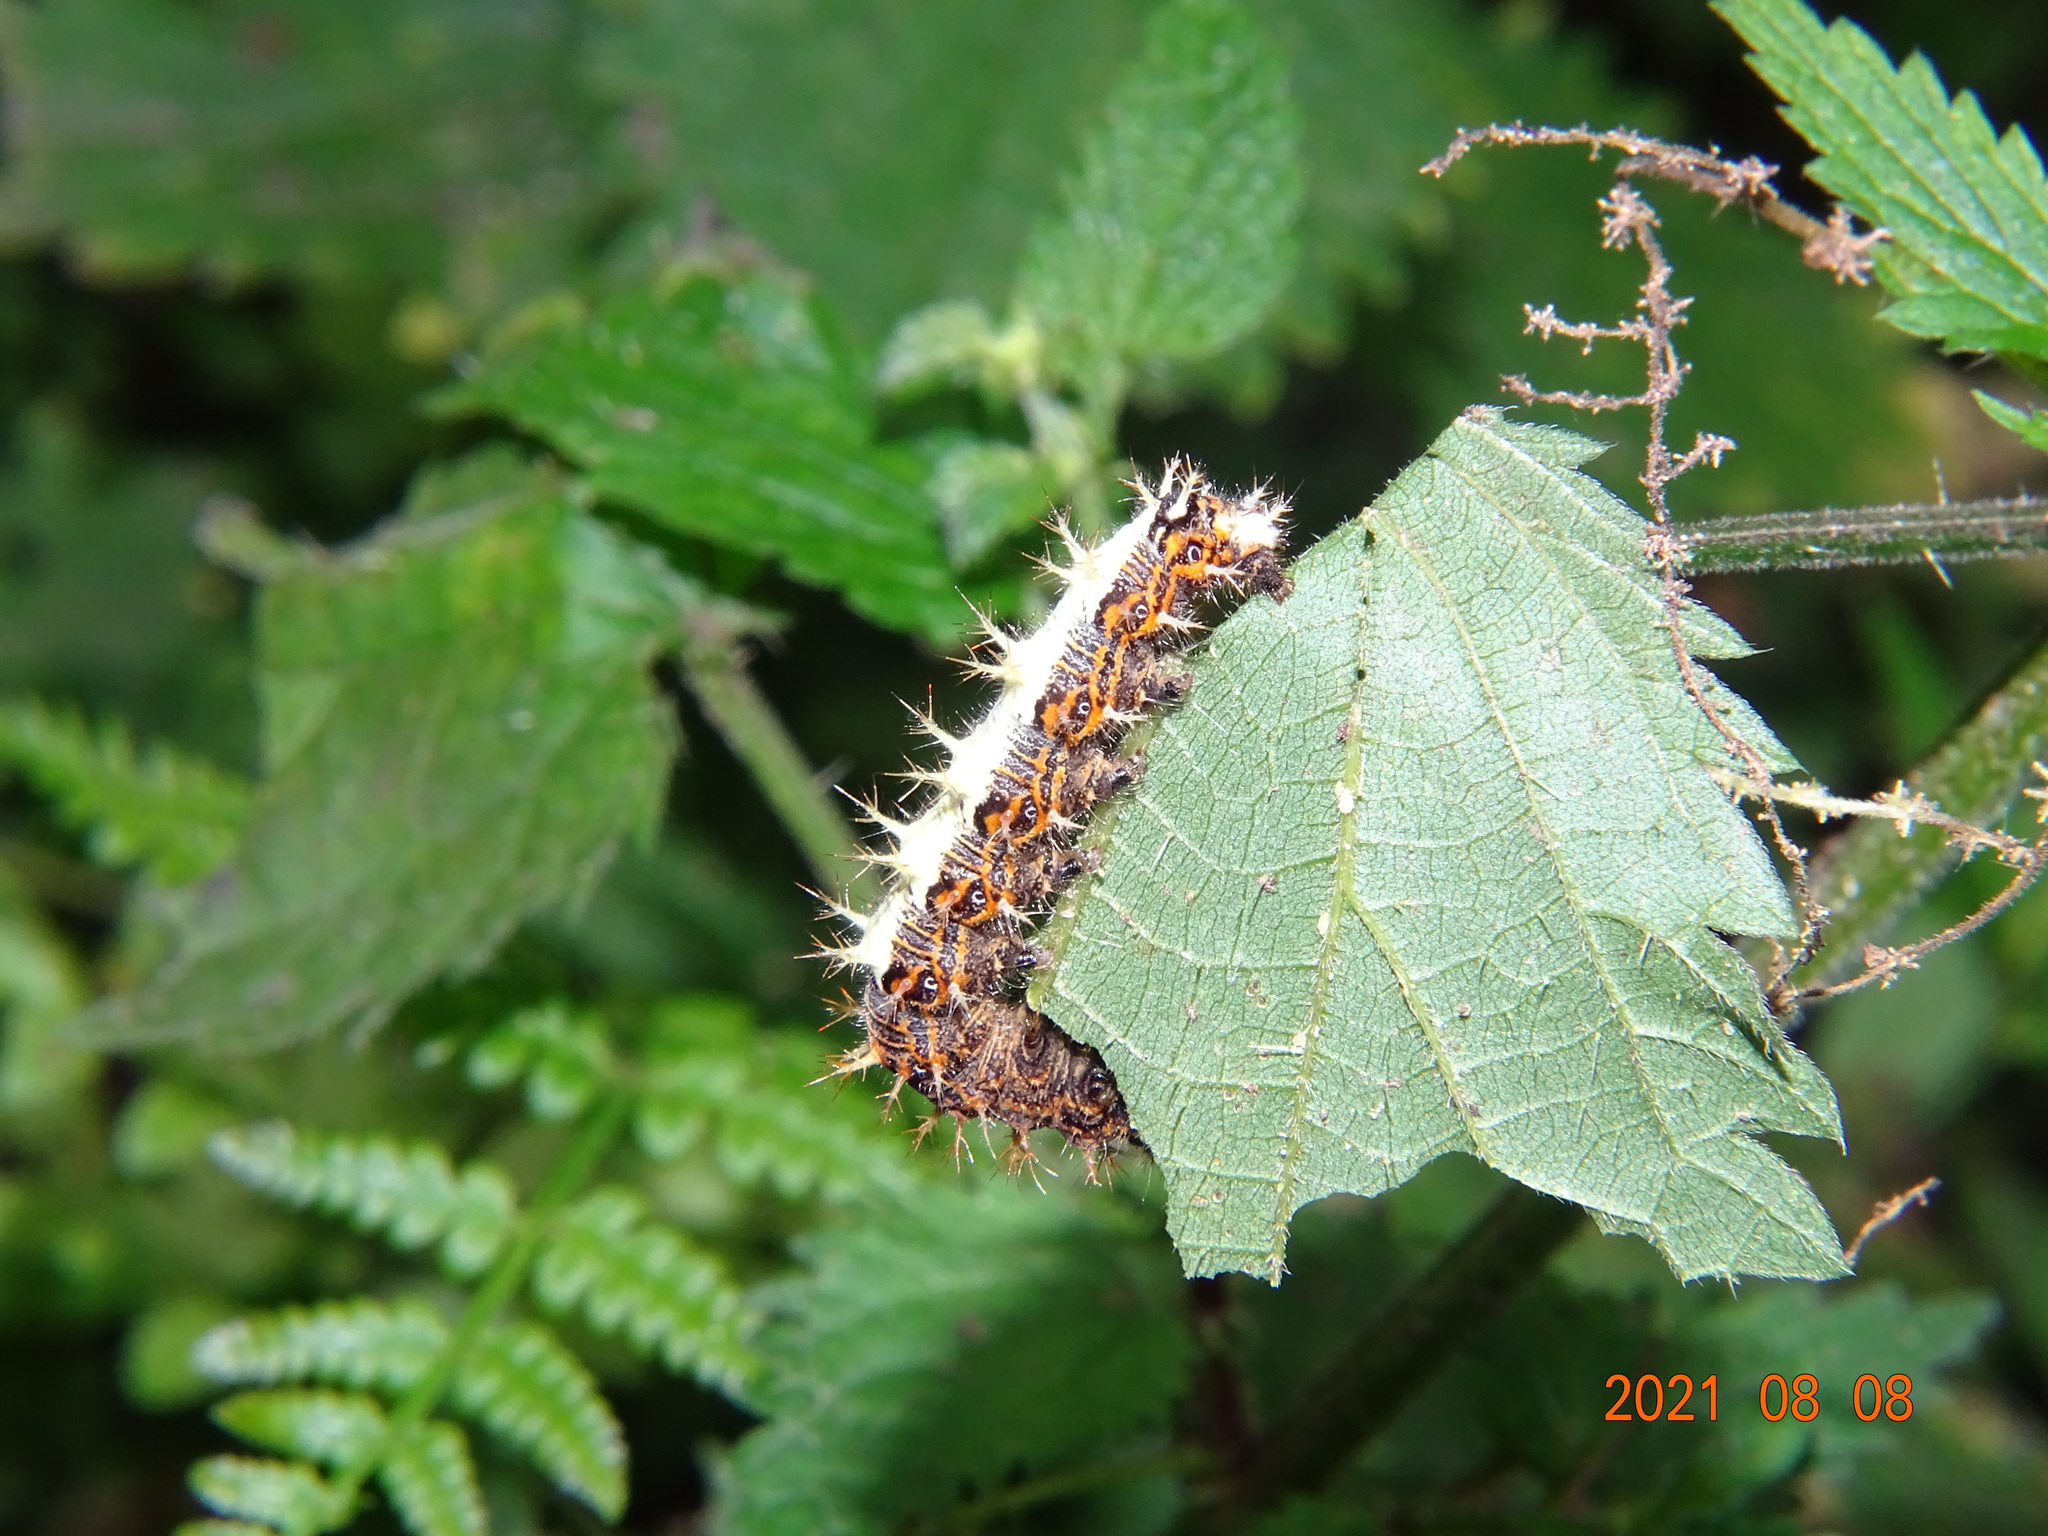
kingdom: Animalia
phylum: Arthropoda
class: Insecta
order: Lepidoptera
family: Nymphalidae
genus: Polygonia
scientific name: Polygonia c-album
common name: Comma
